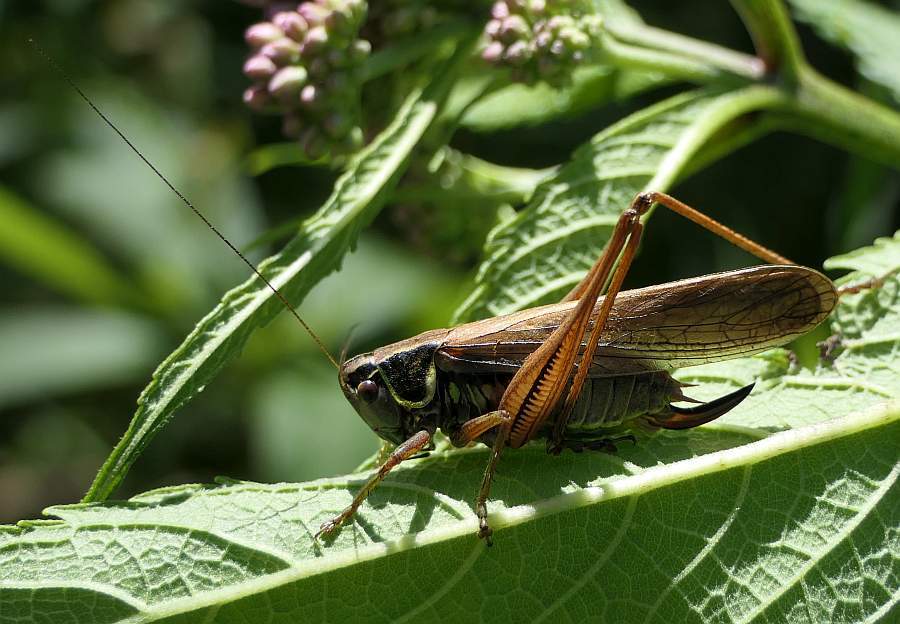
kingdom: Animalia
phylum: Arthropoda
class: Insecta
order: Orthoptera
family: Tettigoniidae
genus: Roeseliana
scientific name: Roeseliana roeselii
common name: Roesel's bush cricket
